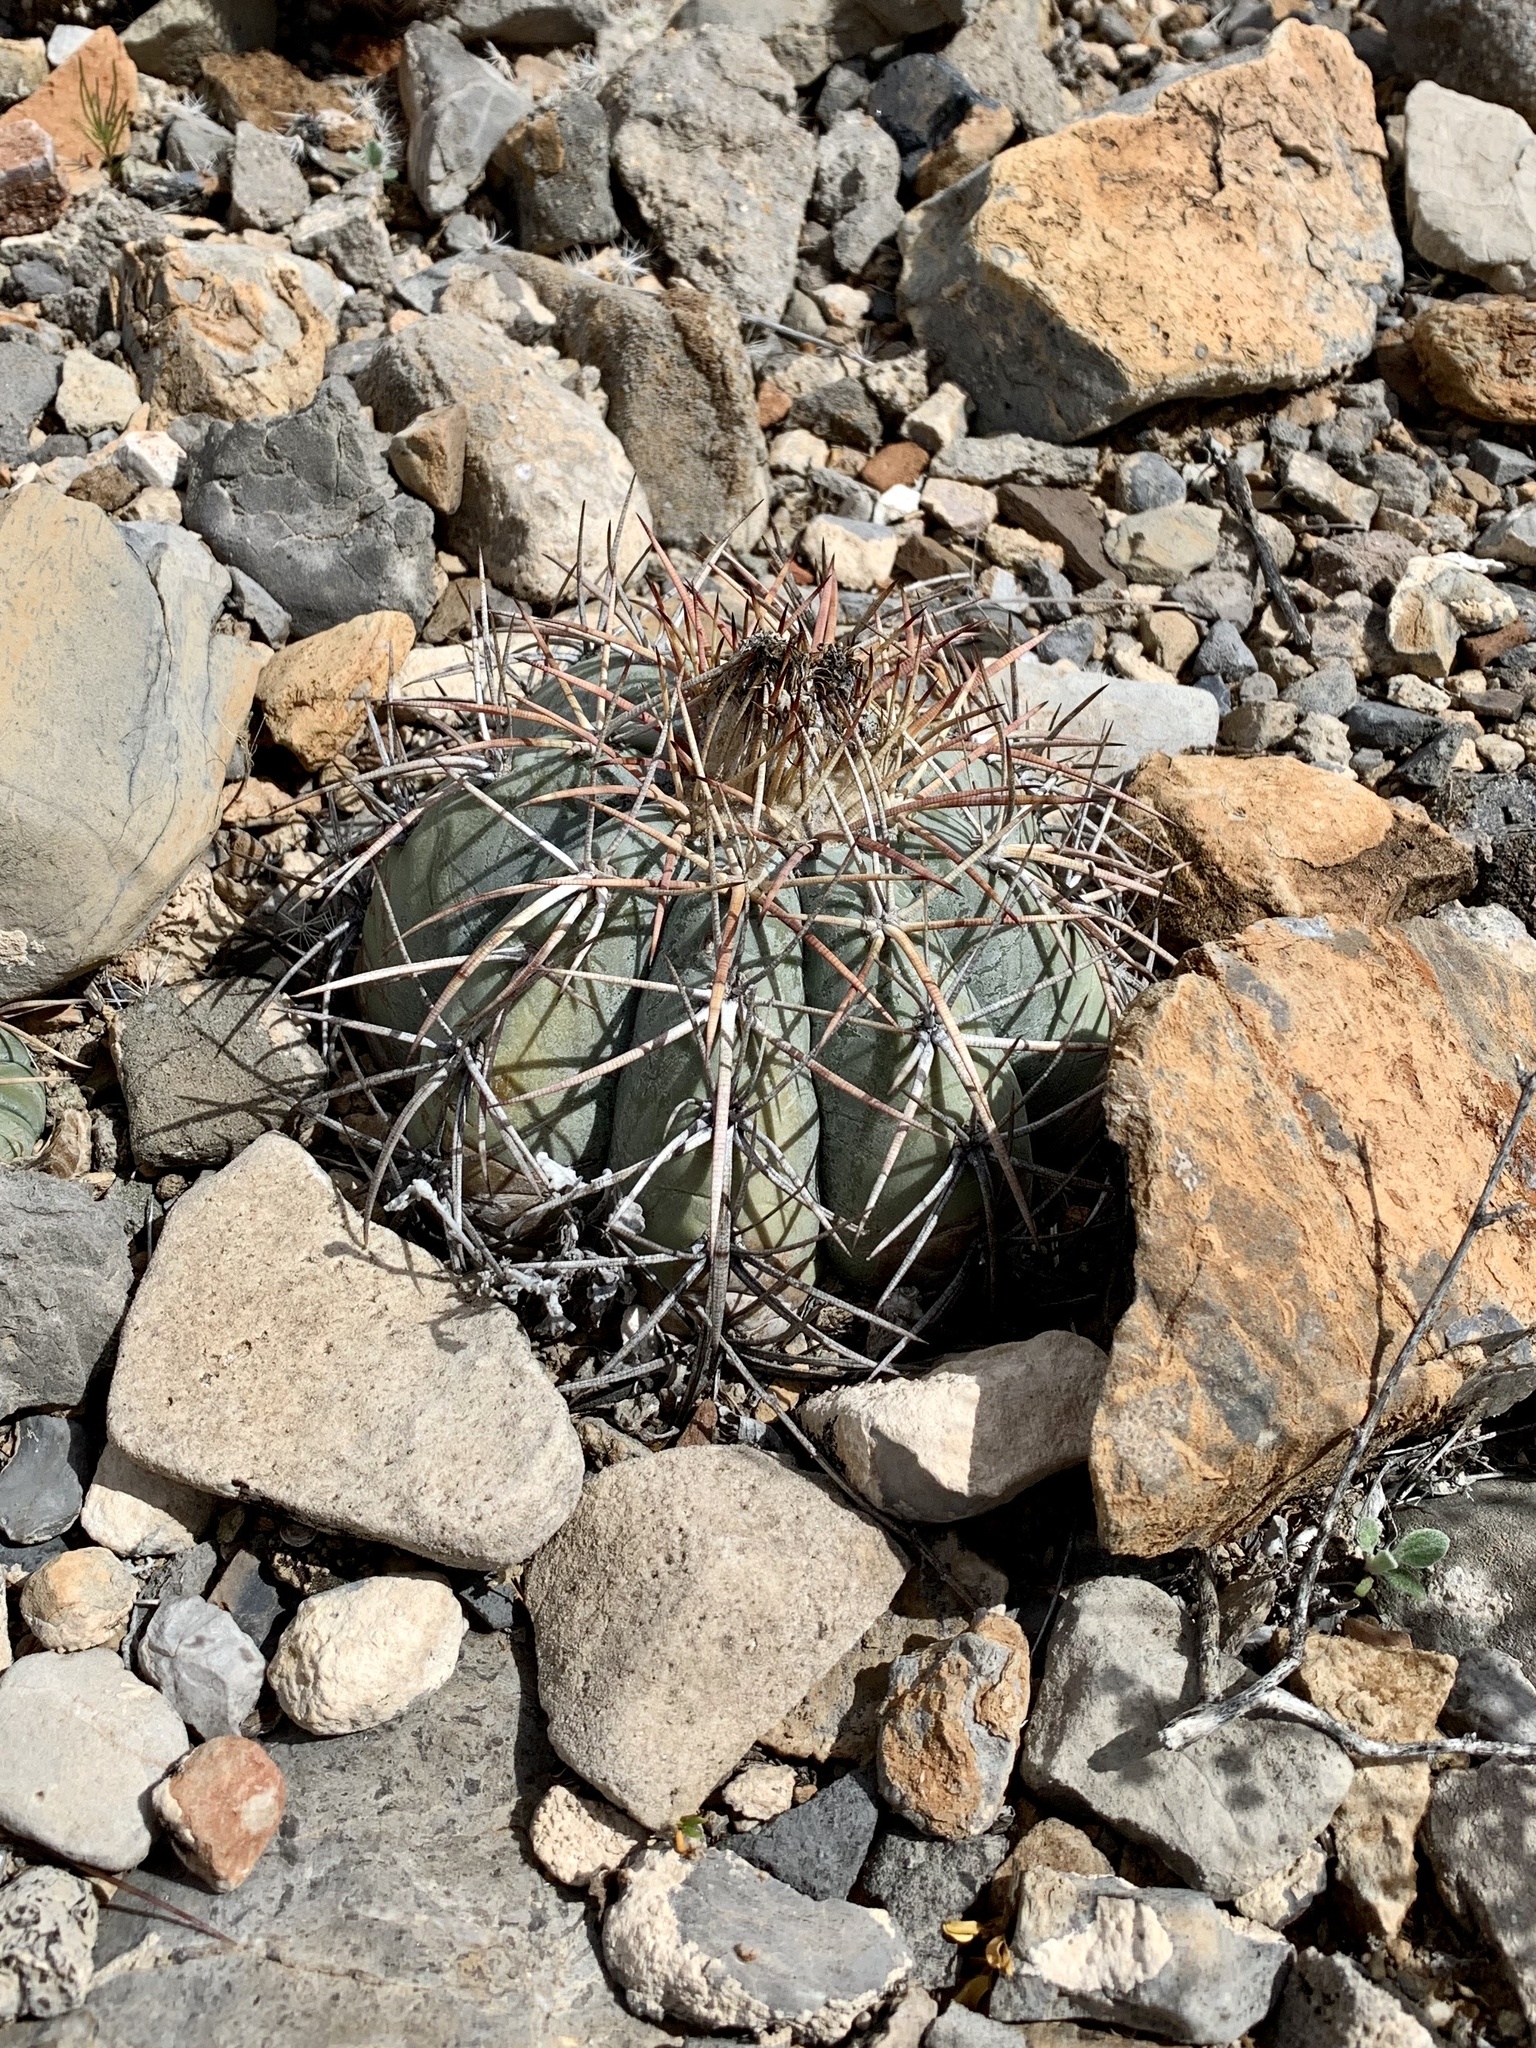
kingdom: Plantae
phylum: Tracheophyta
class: Magnoliopsida
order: Caryophyllales
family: Cactaceae
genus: Echinocactus
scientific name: Echinocactus horizonthalonius
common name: Devilshead
